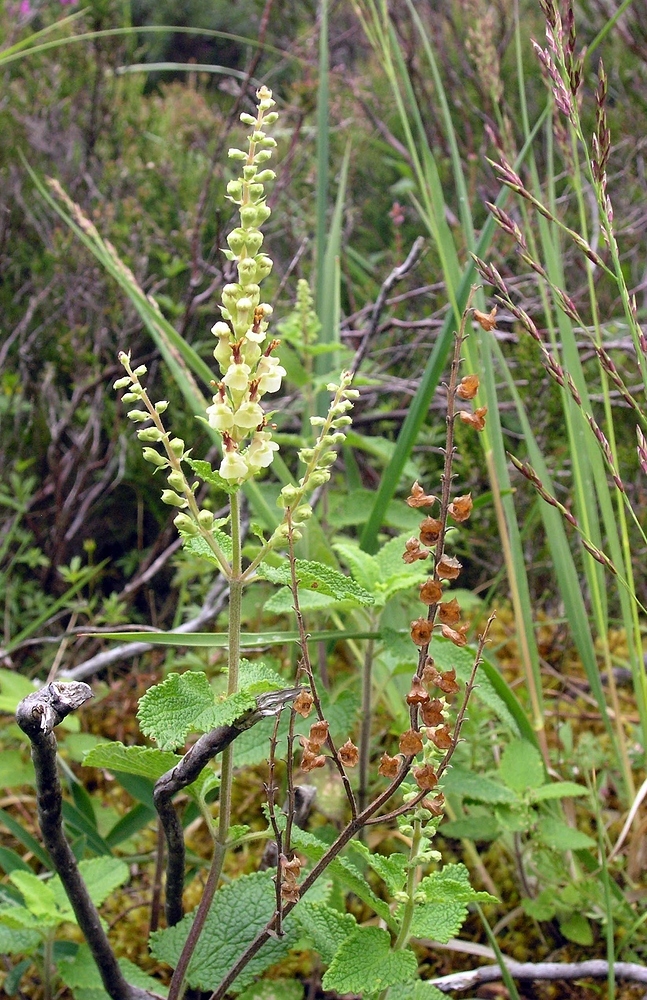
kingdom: Plantae
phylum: Tracheophyta
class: Magnoliopsida
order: Lamiales
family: Lamiaceae
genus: Teucrium
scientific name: Teucrium scorodonia
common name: Woodland germander
